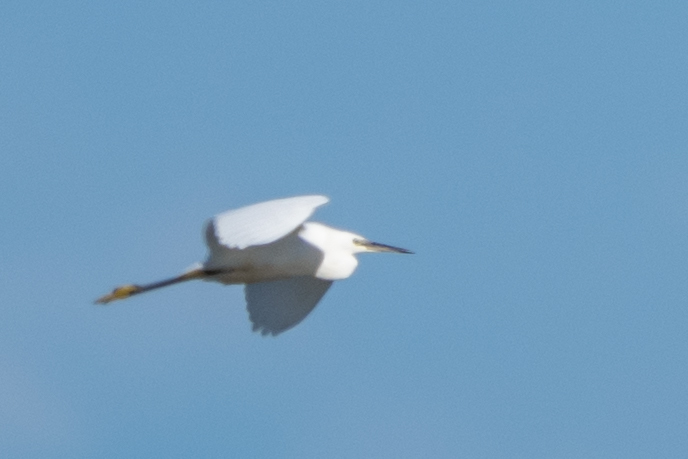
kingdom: Animalia
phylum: Chordata
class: Aves
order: Pelecaniformes
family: Ardeidae
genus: Egretta
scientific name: Egretta garzetta
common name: Little egret
